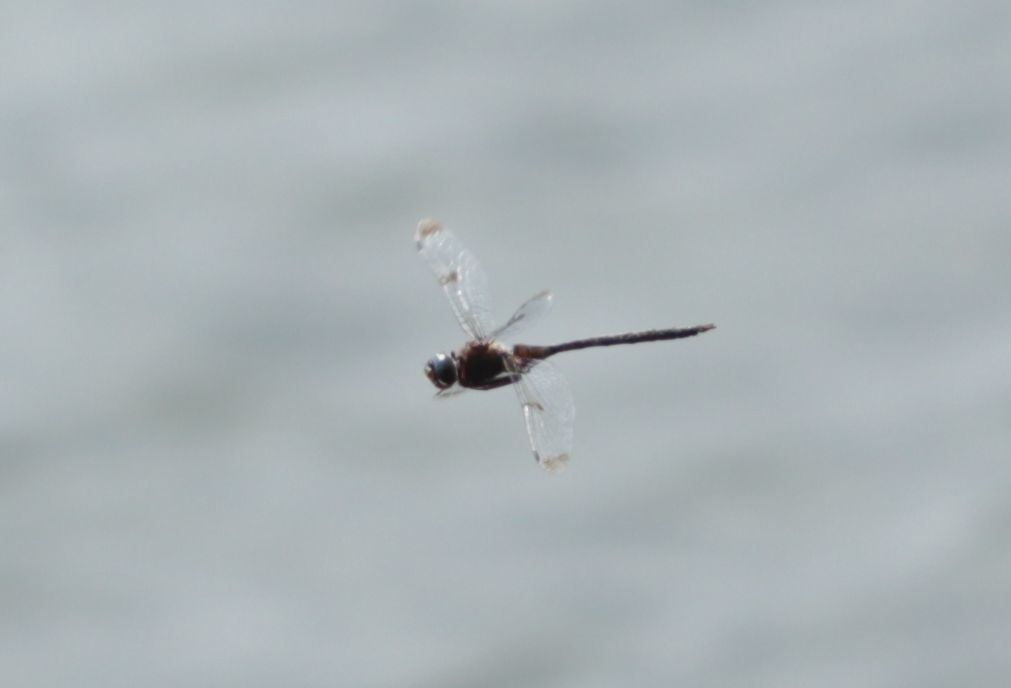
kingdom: Animalia
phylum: Arthropoda
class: Insecta
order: Odonata
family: Corduliidae
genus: Epitheca
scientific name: Epitheca princeps
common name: Prince baskettail
